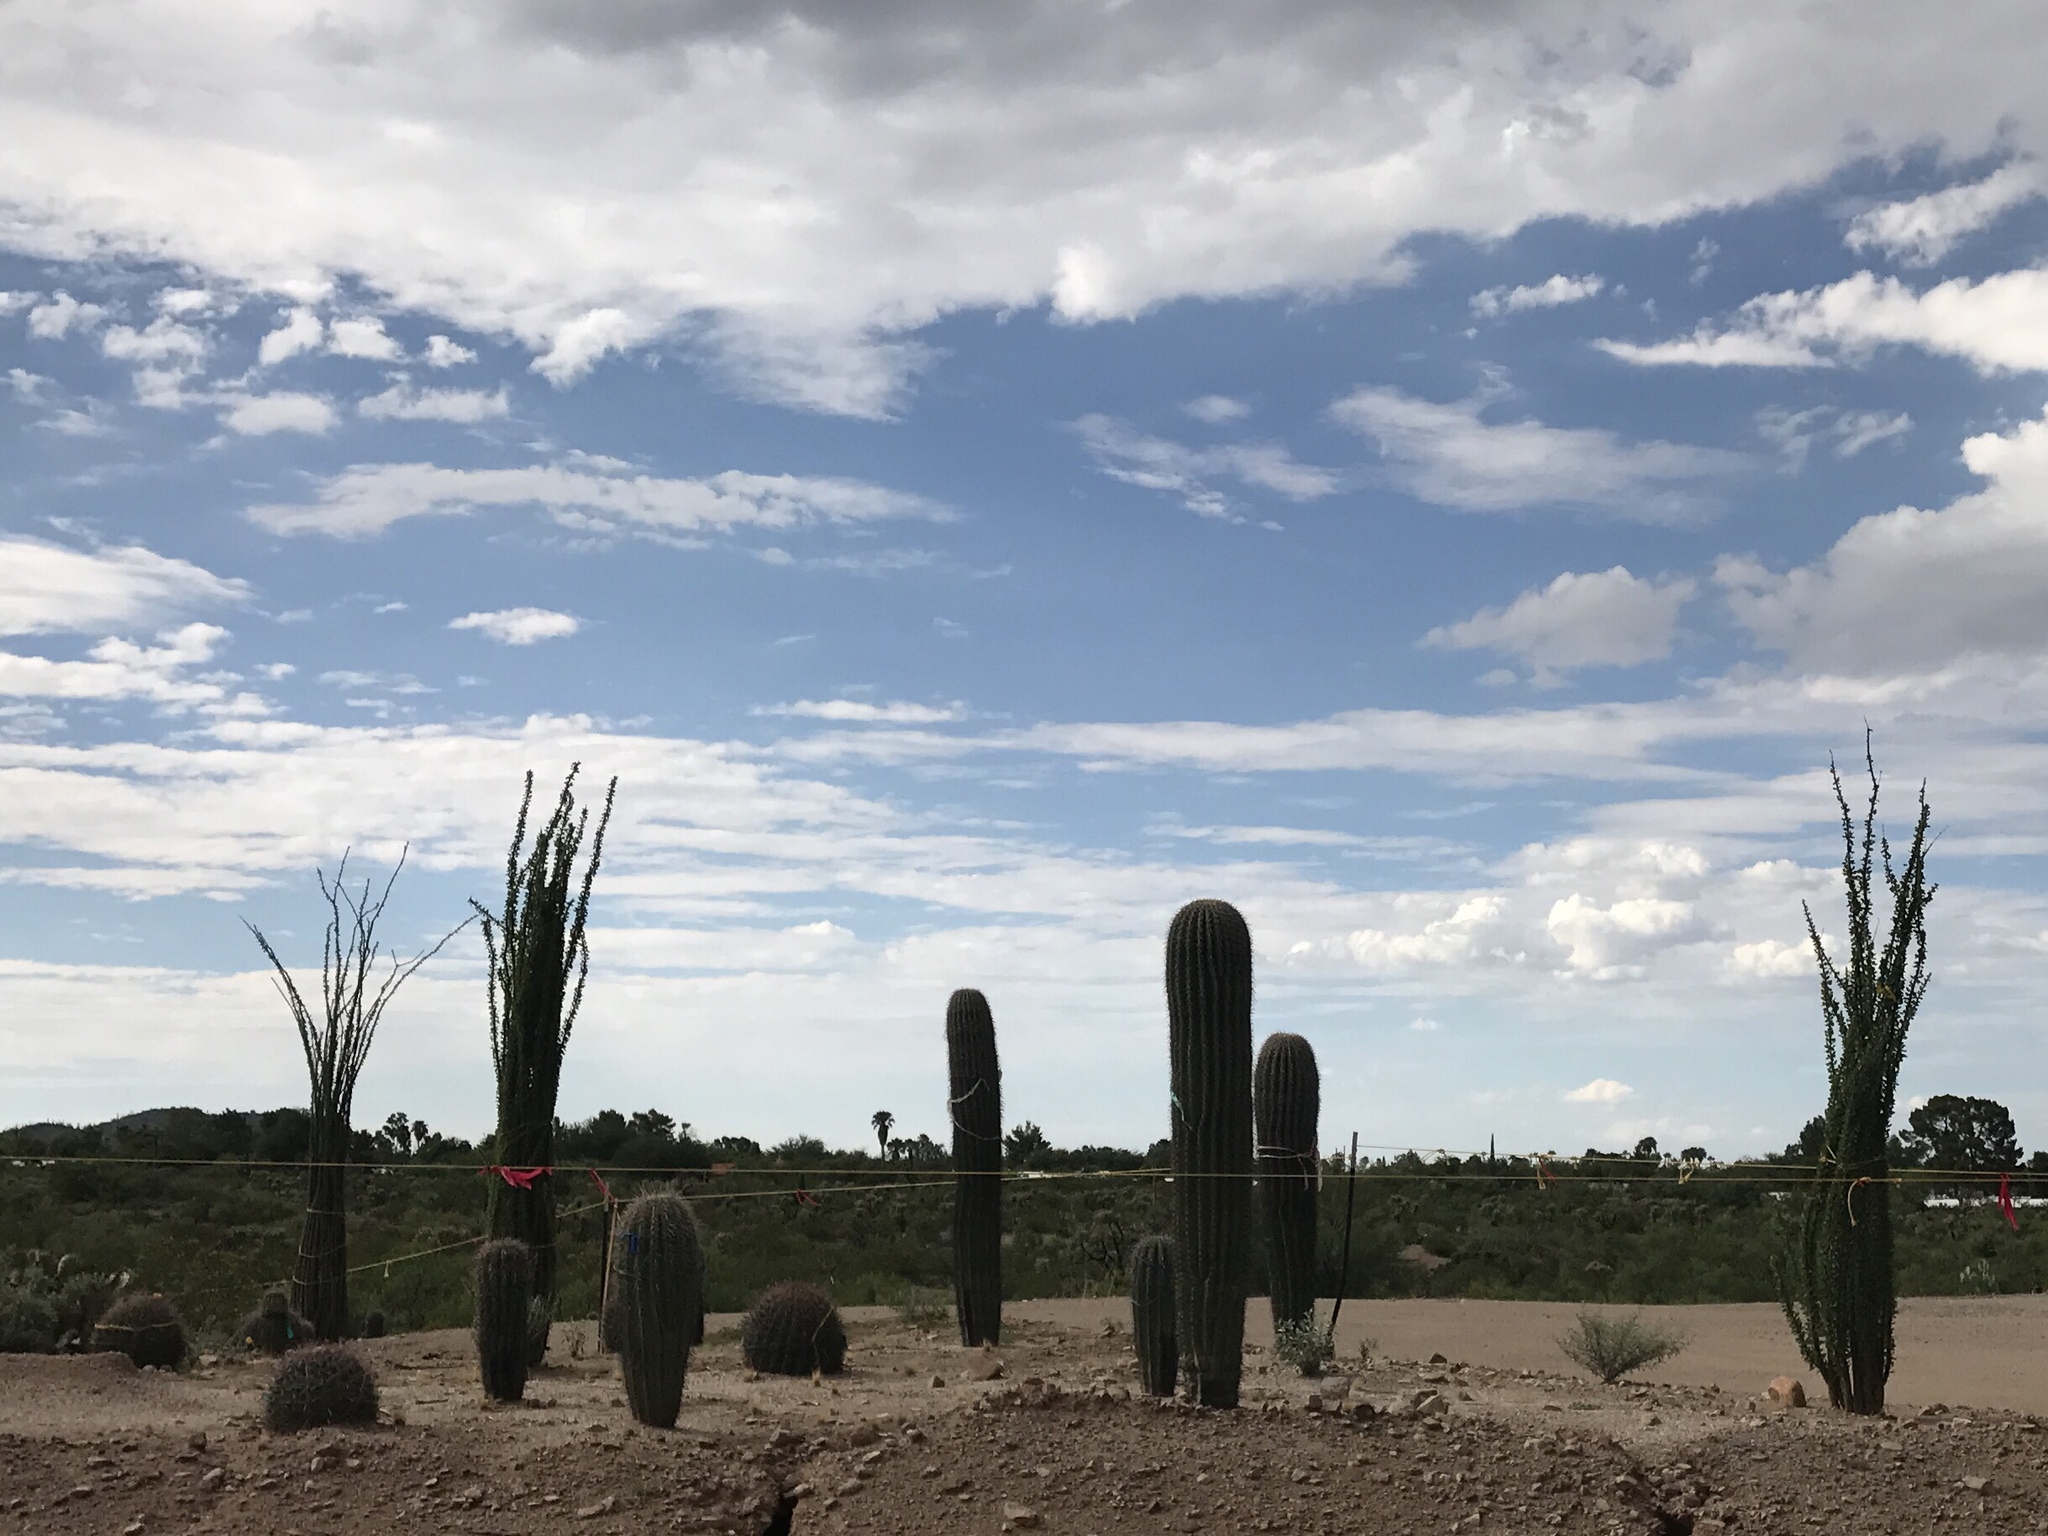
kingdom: Plantae
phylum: Tracheophyta
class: Magnoliopsida
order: Ericales
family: Fouquieriaceae
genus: Fouquieria
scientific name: Fouquieria splendens
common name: Vine-cactus
